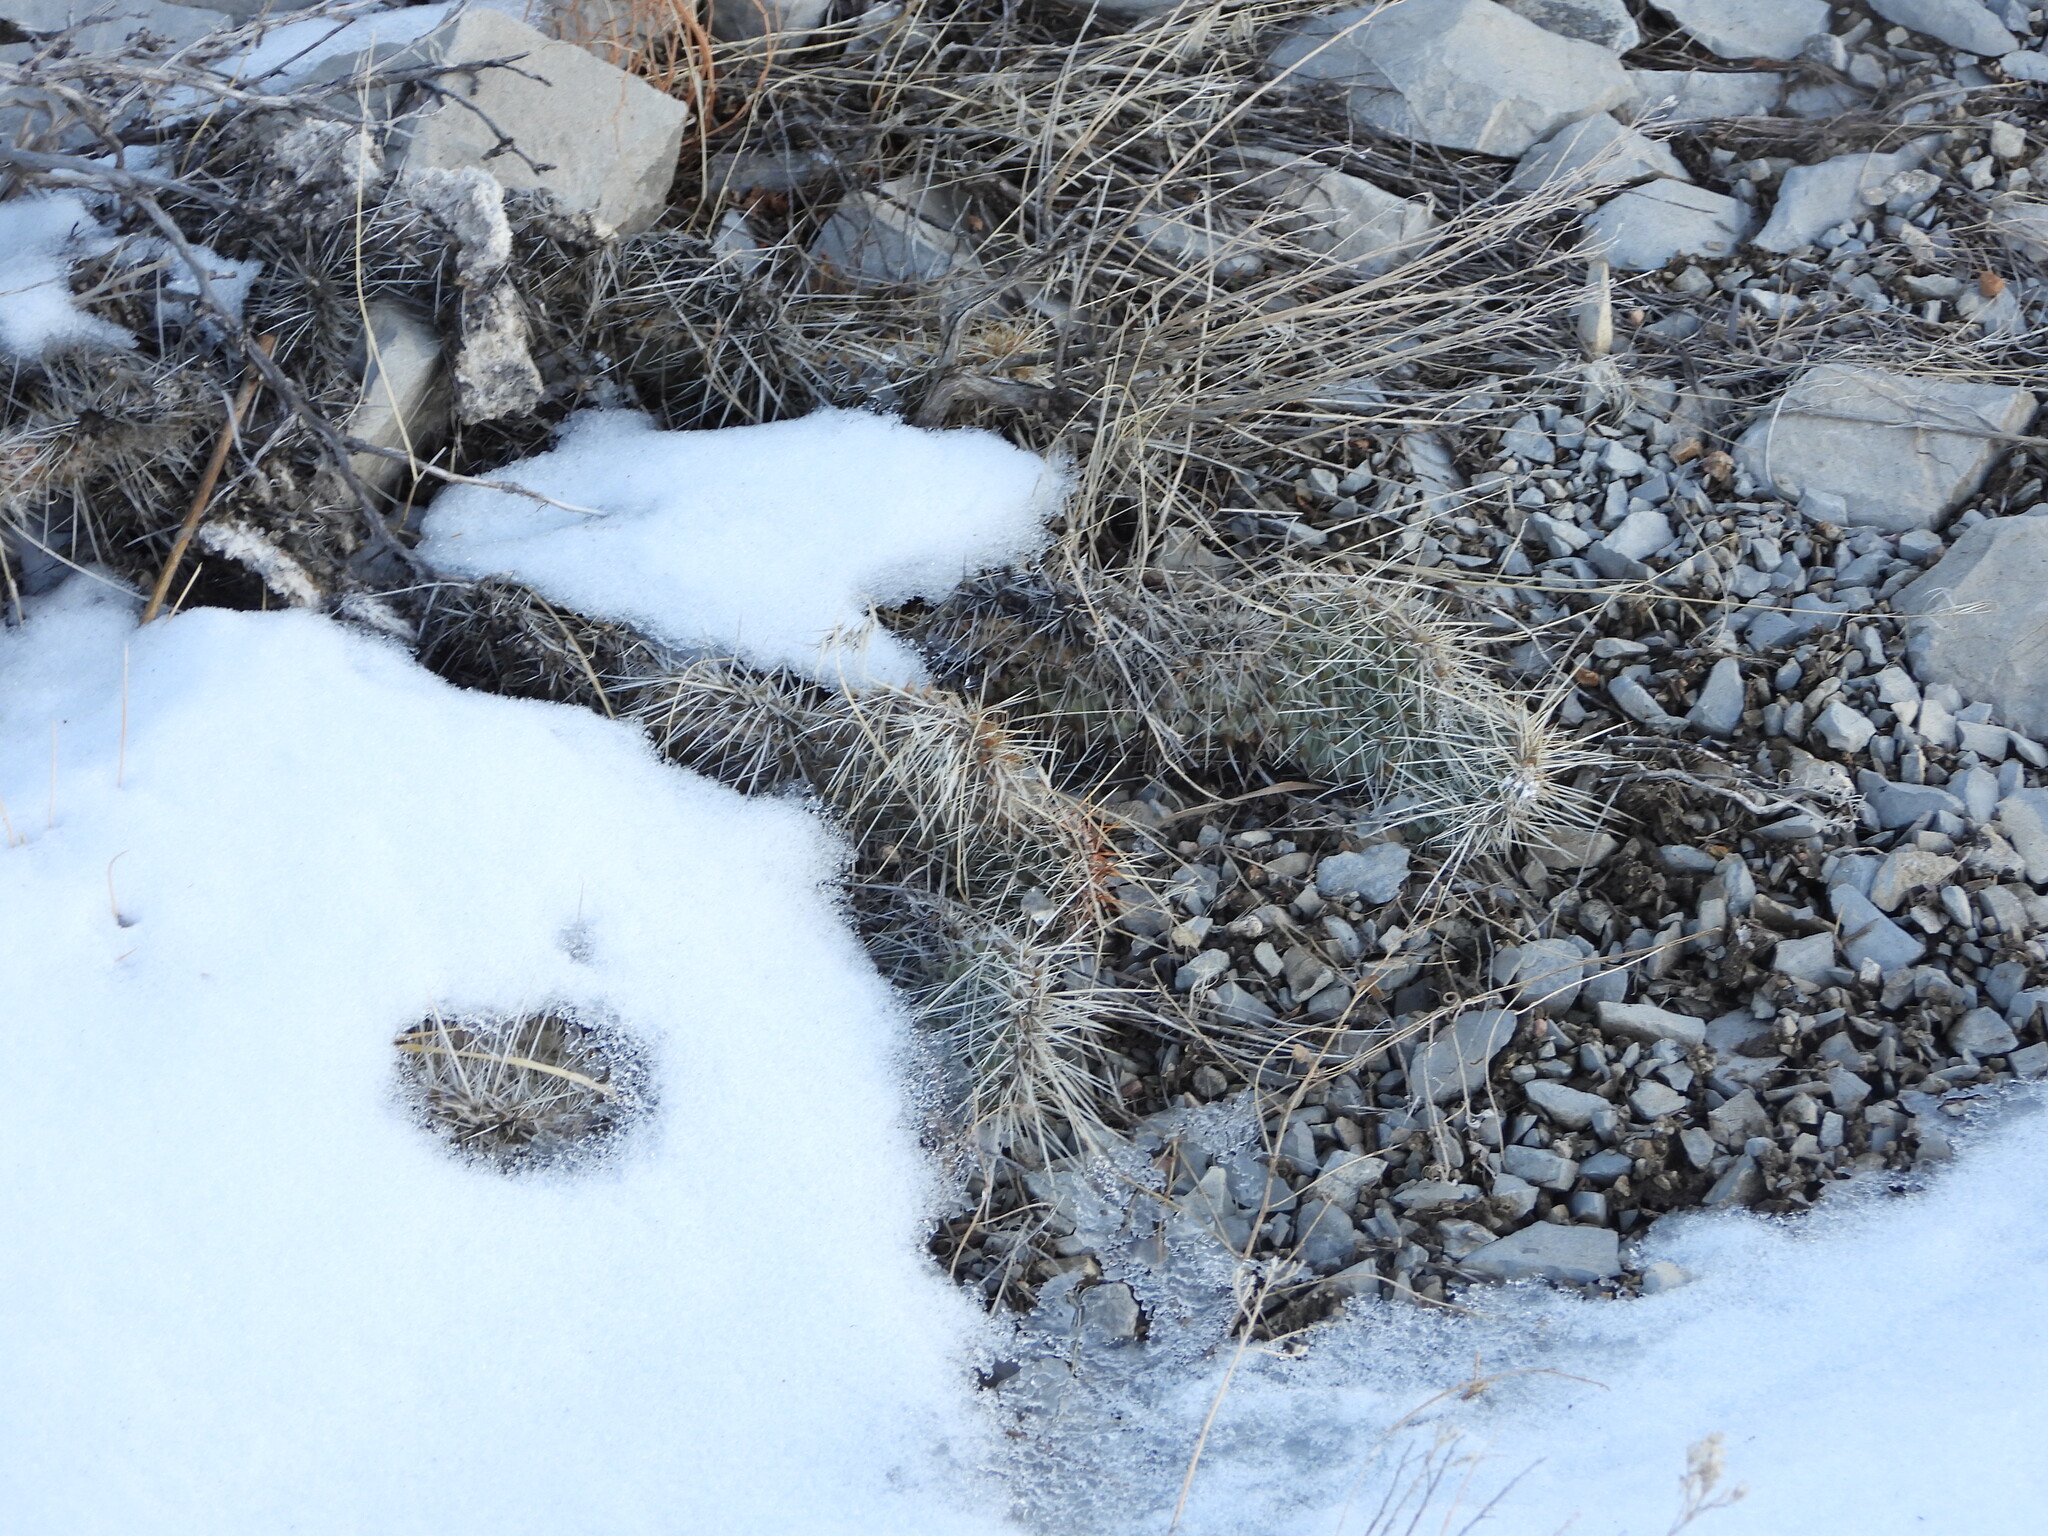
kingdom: Plantae
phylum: Tracheophyta
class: Magnoliopsida
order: Caryophyllales
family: Cactaceae
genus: Opuntia
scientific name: Opuntia polyacantha
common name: Plains prickly-pear
